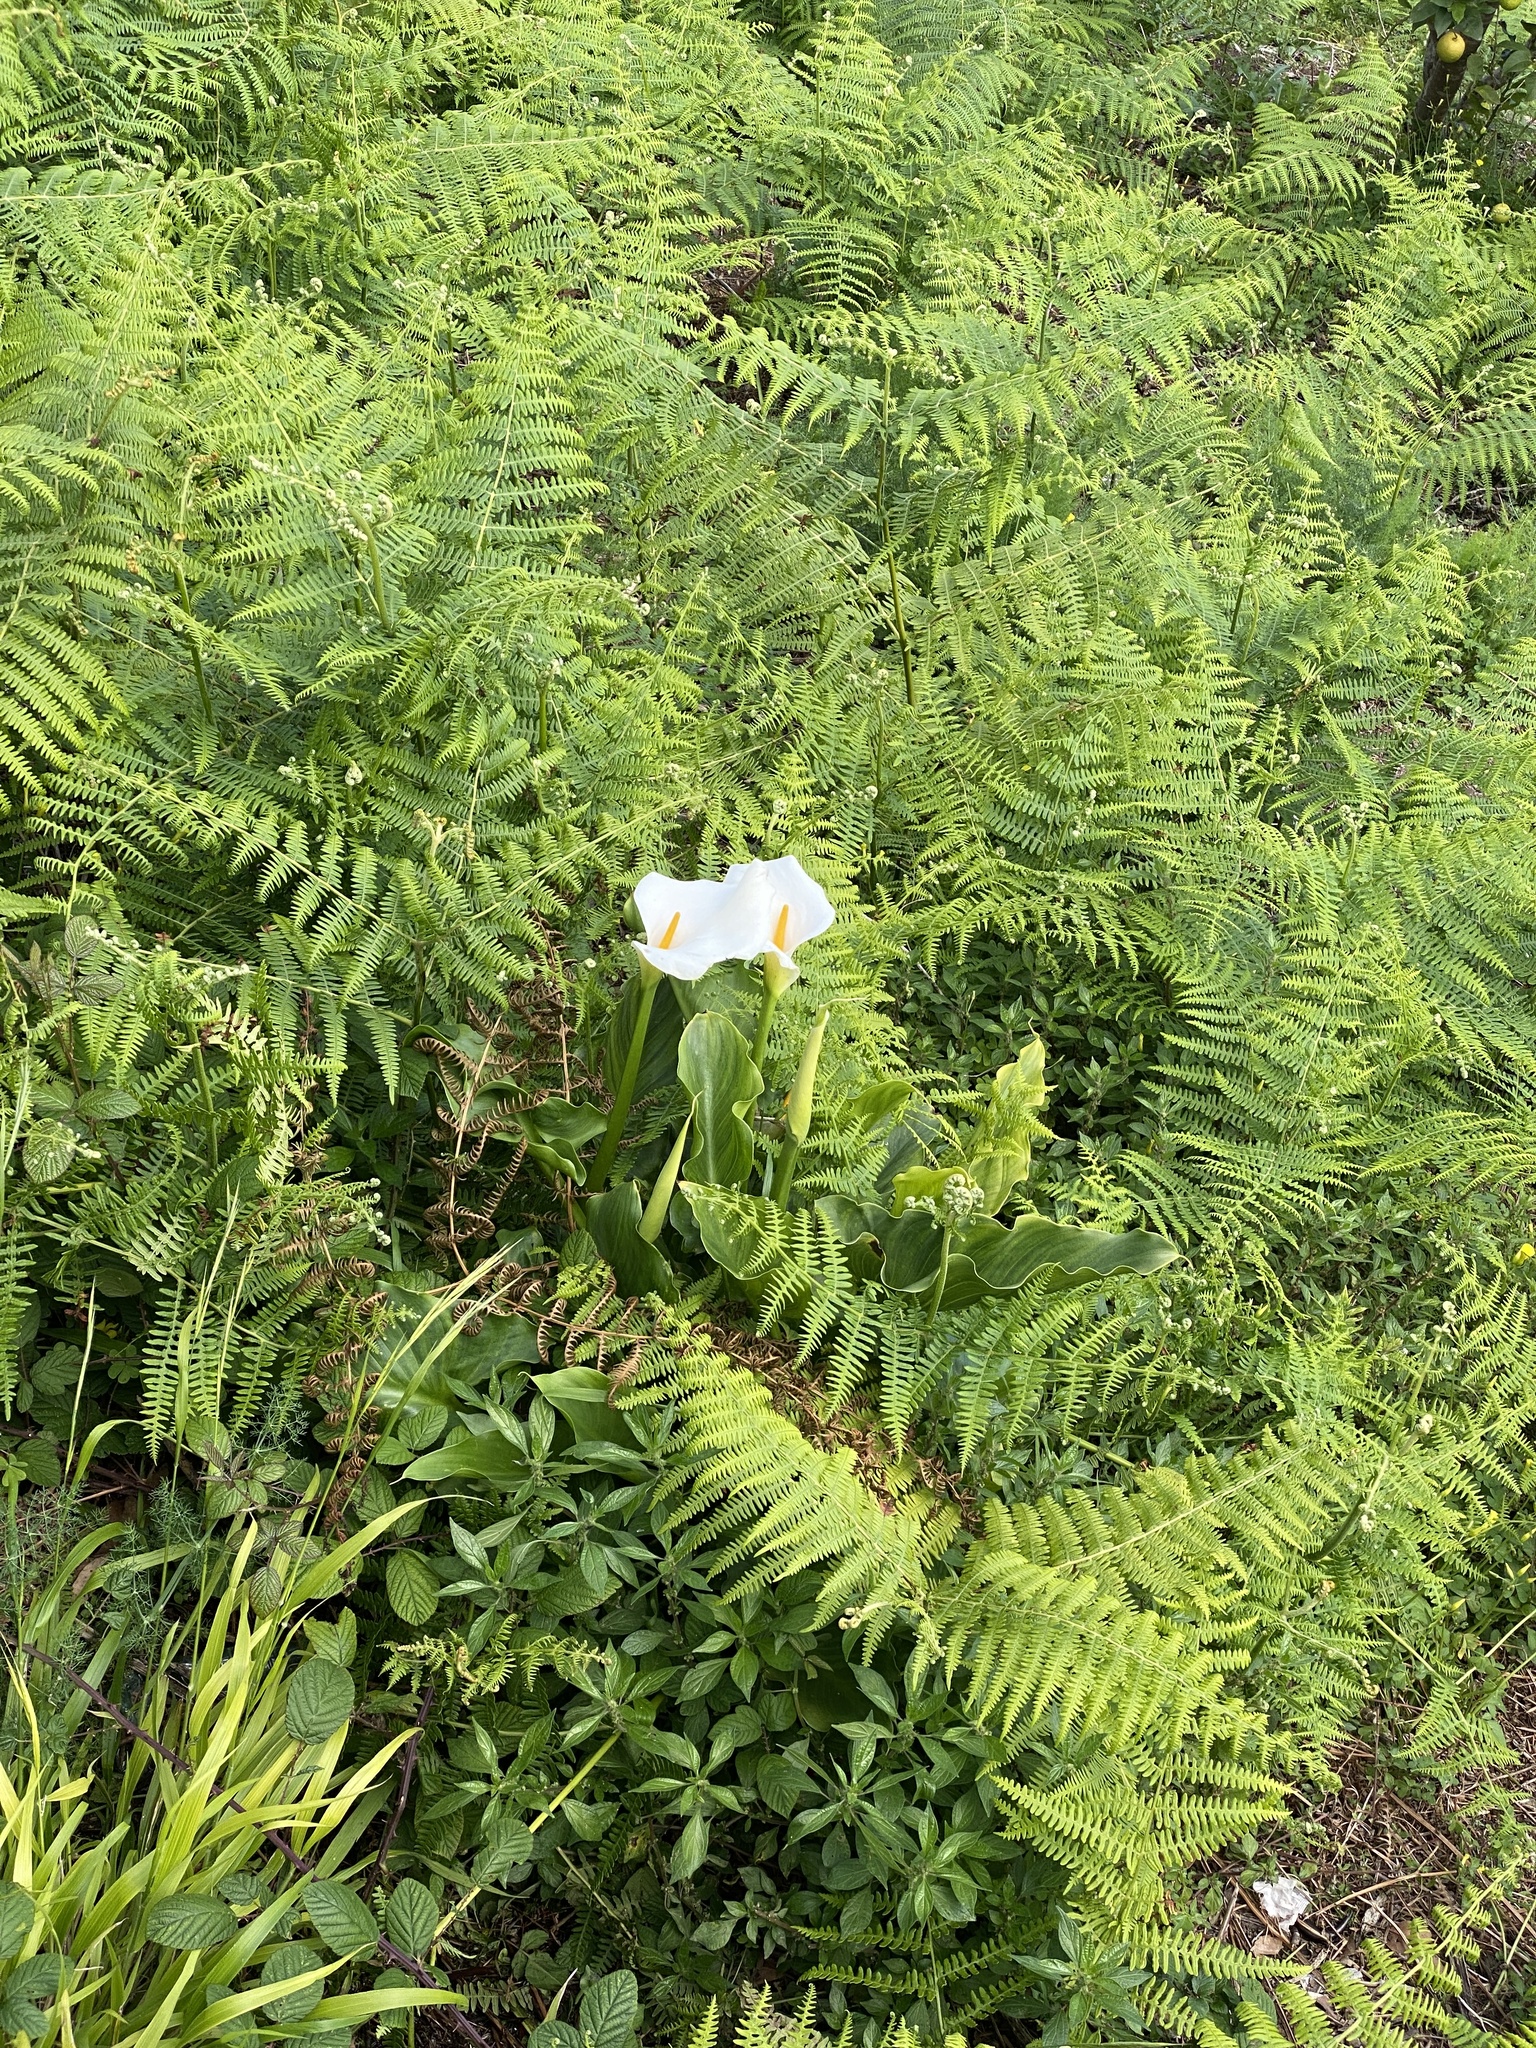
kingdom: Plantae
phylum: Tracheophyta
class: Liliopsida
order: Alismatales
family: Araceae
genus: Zantedeschia
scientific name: Zantedeschia aethiopica
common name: Altar-lily
